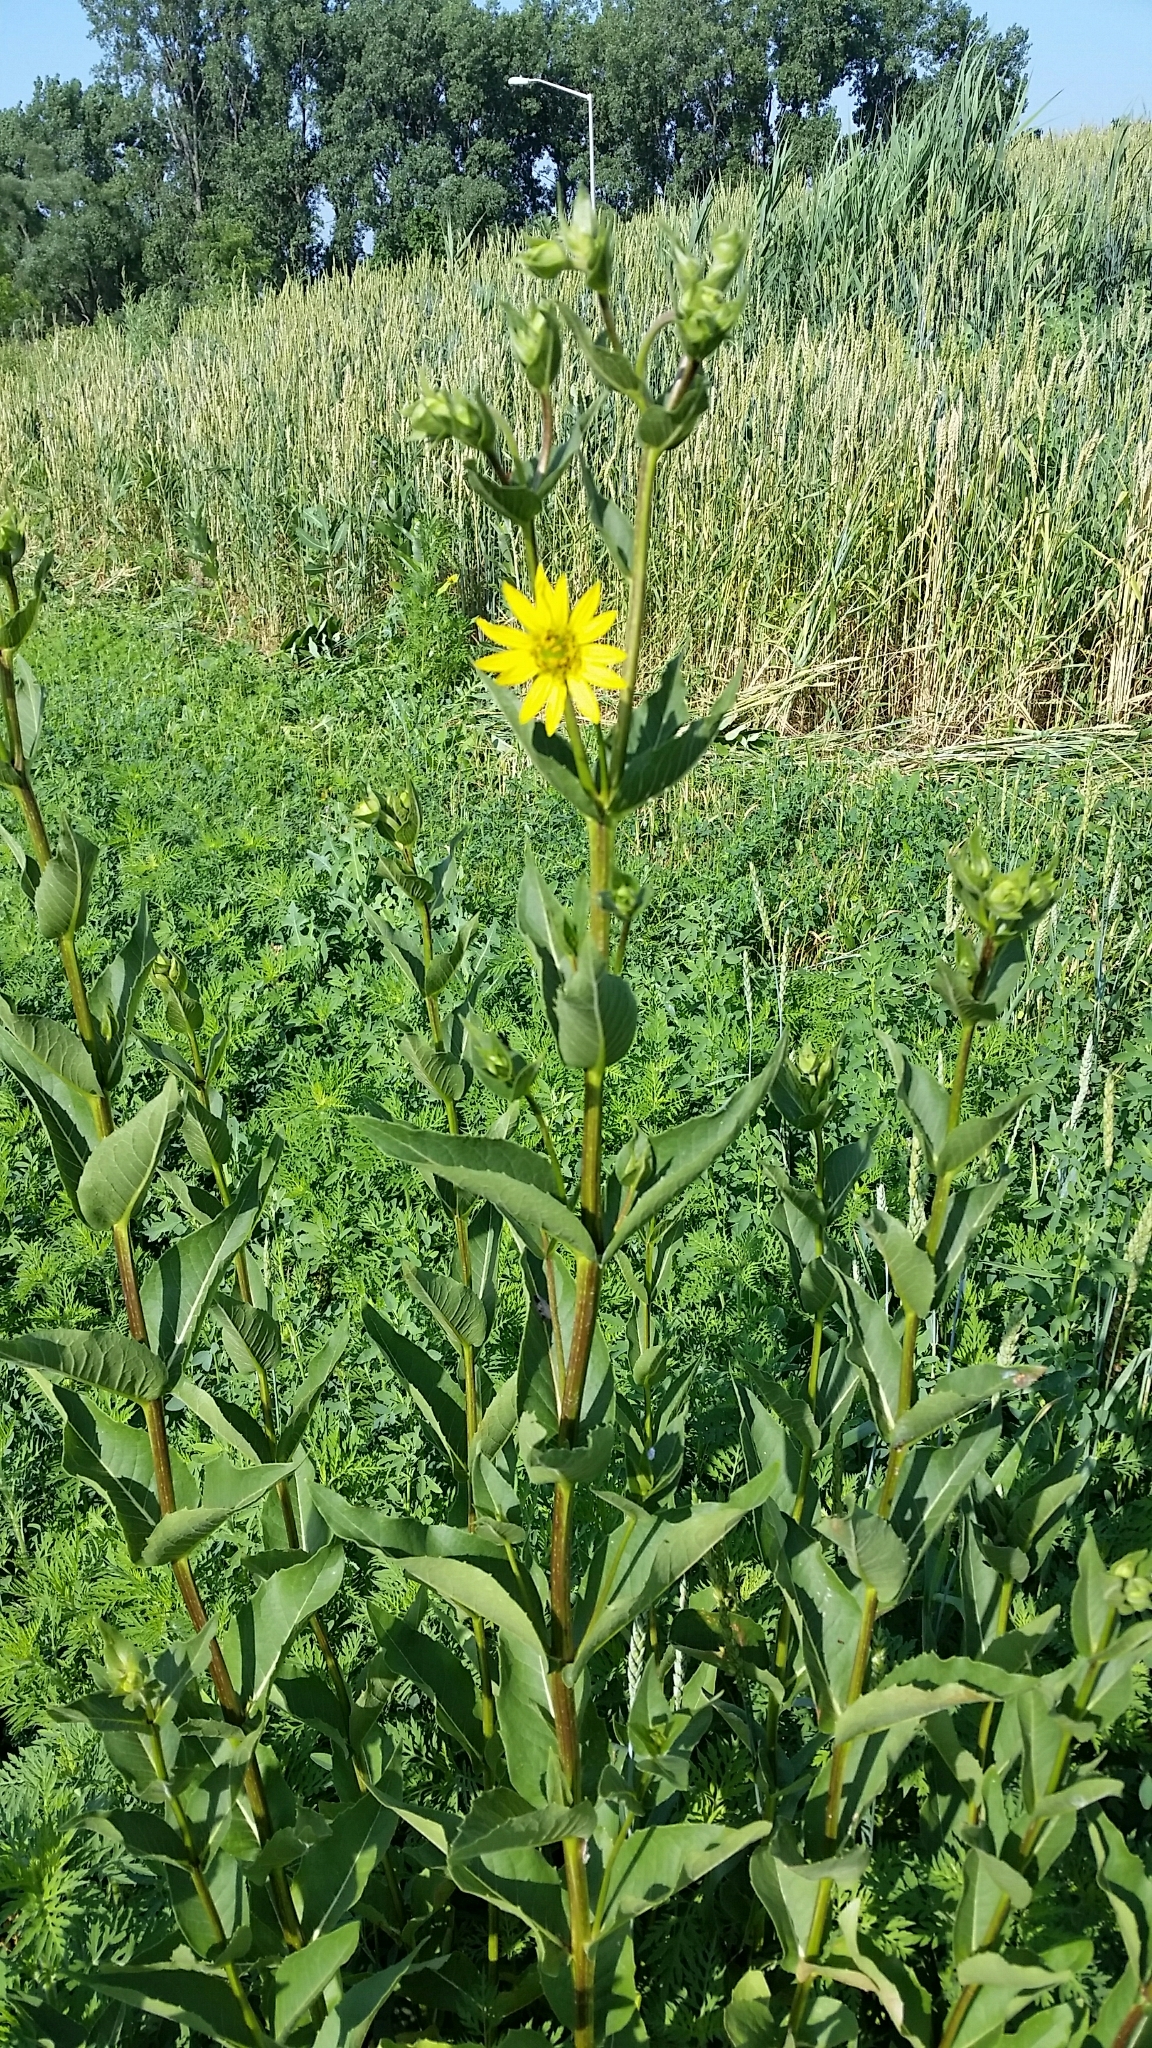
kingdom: Plantae
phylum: Tracheophyta
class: Magnoliopsida
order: Asterales
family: Asteraceae
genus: Silphium
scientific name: Silphium integrifolium
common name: Whole-leaf rosinweed
